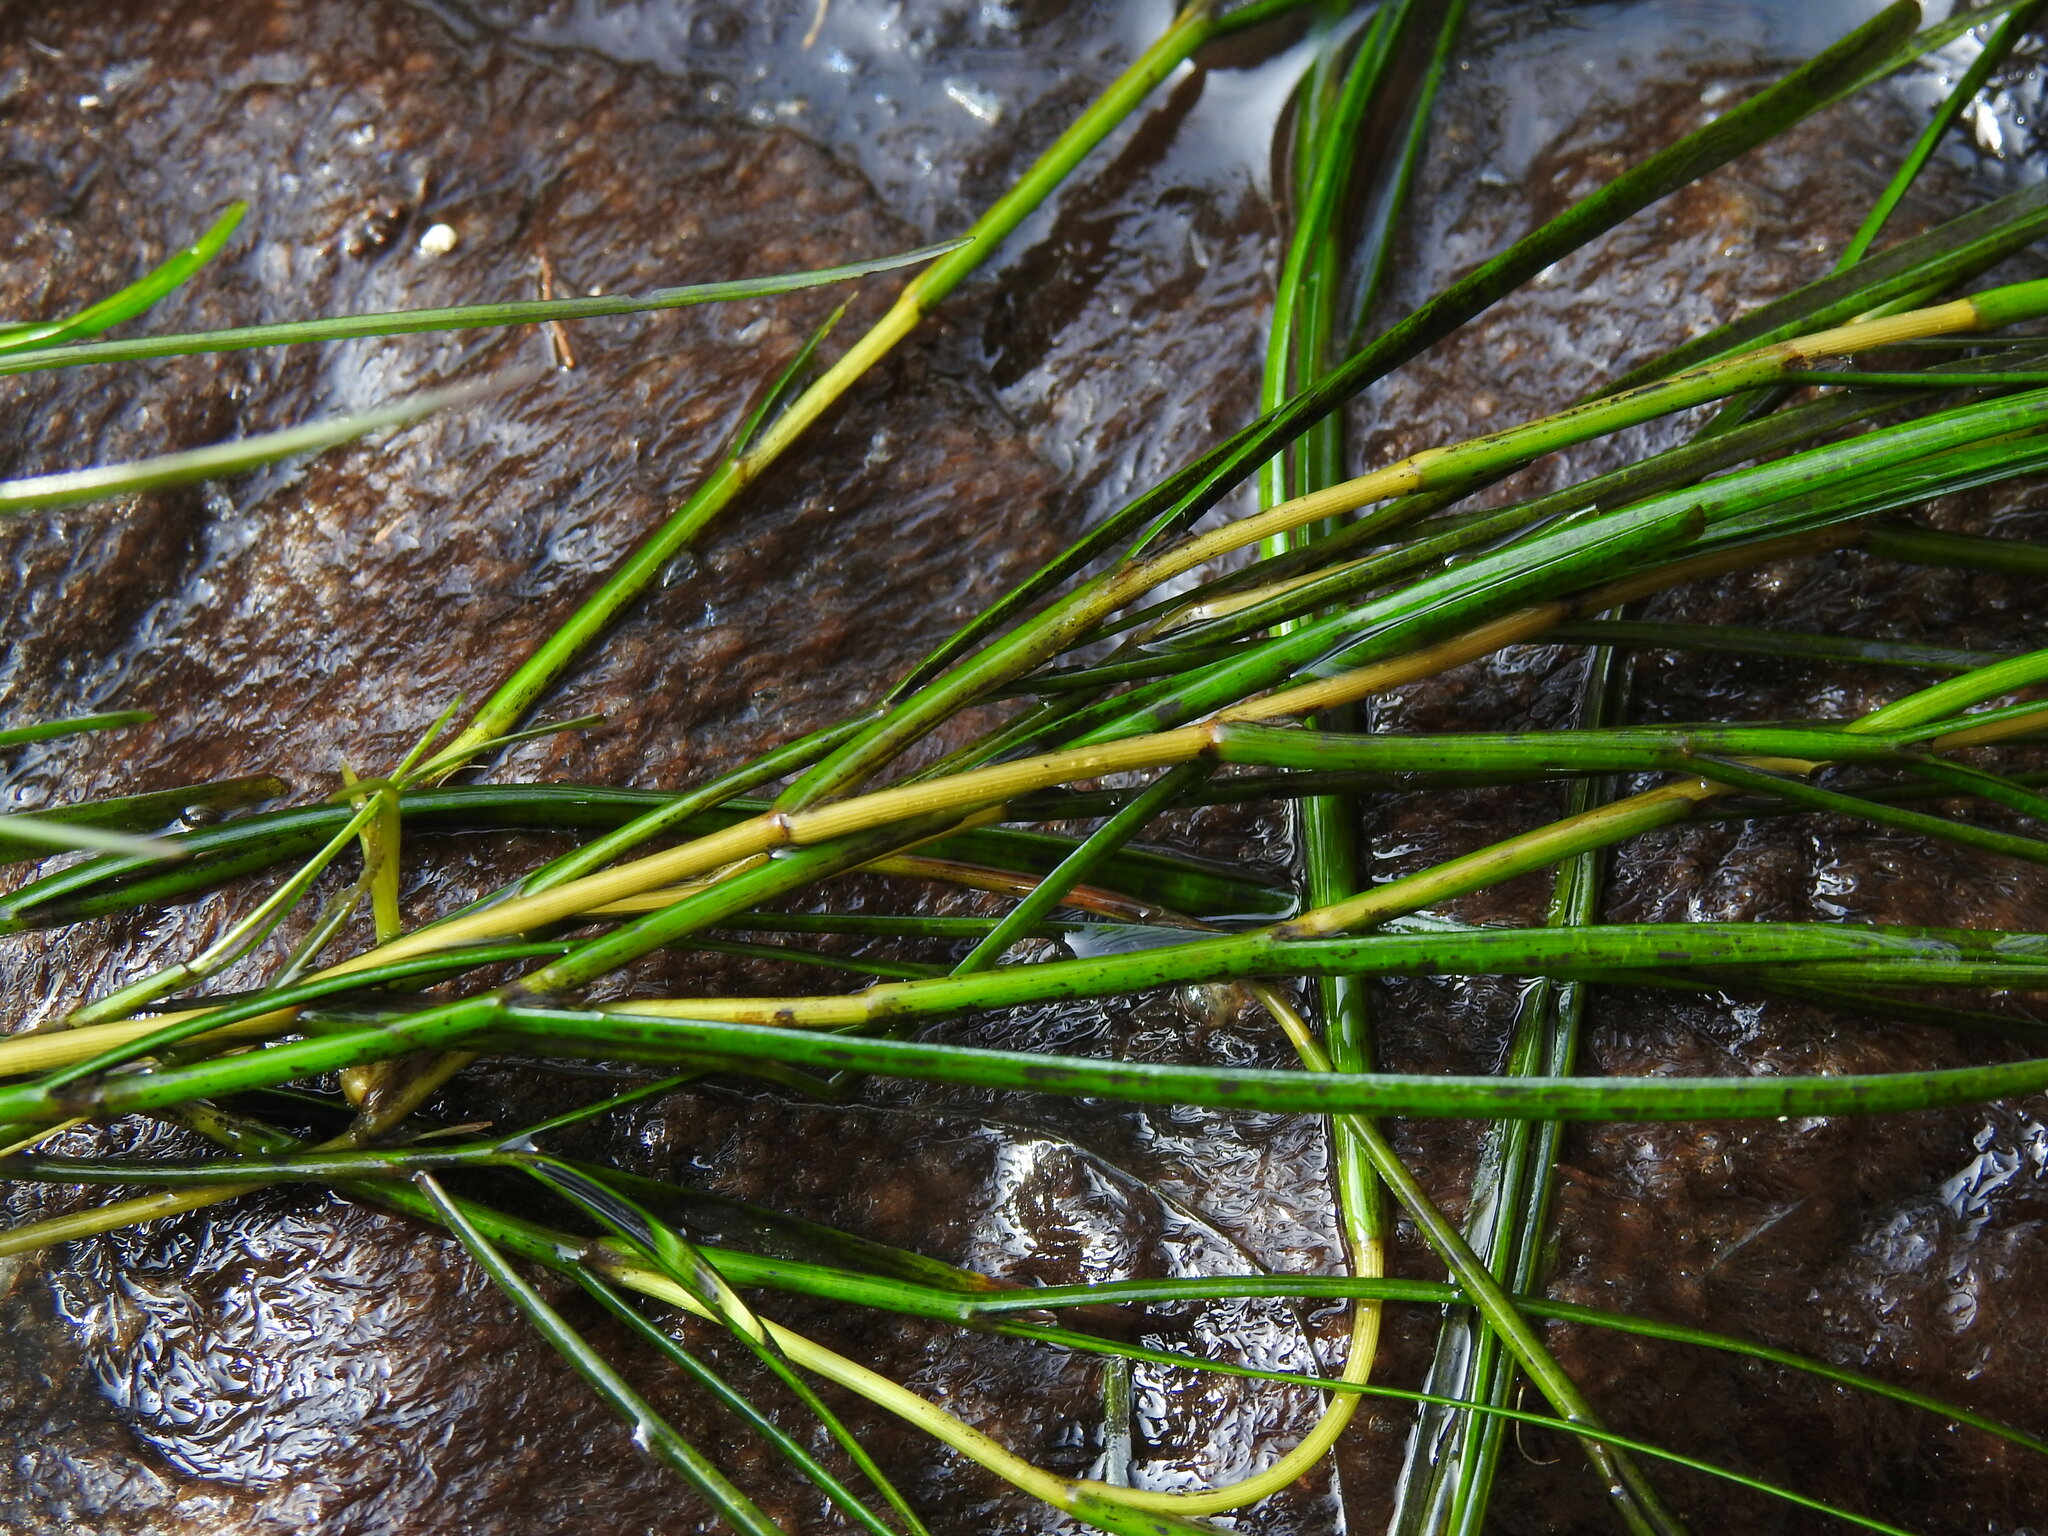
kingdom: Plantae
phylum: Tracheophyta
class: Liliopsida
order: Alismatales
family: Potamogetonaceae
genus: Stuckenia
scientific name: Stuckenia pectinata
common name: Sago pondweed
